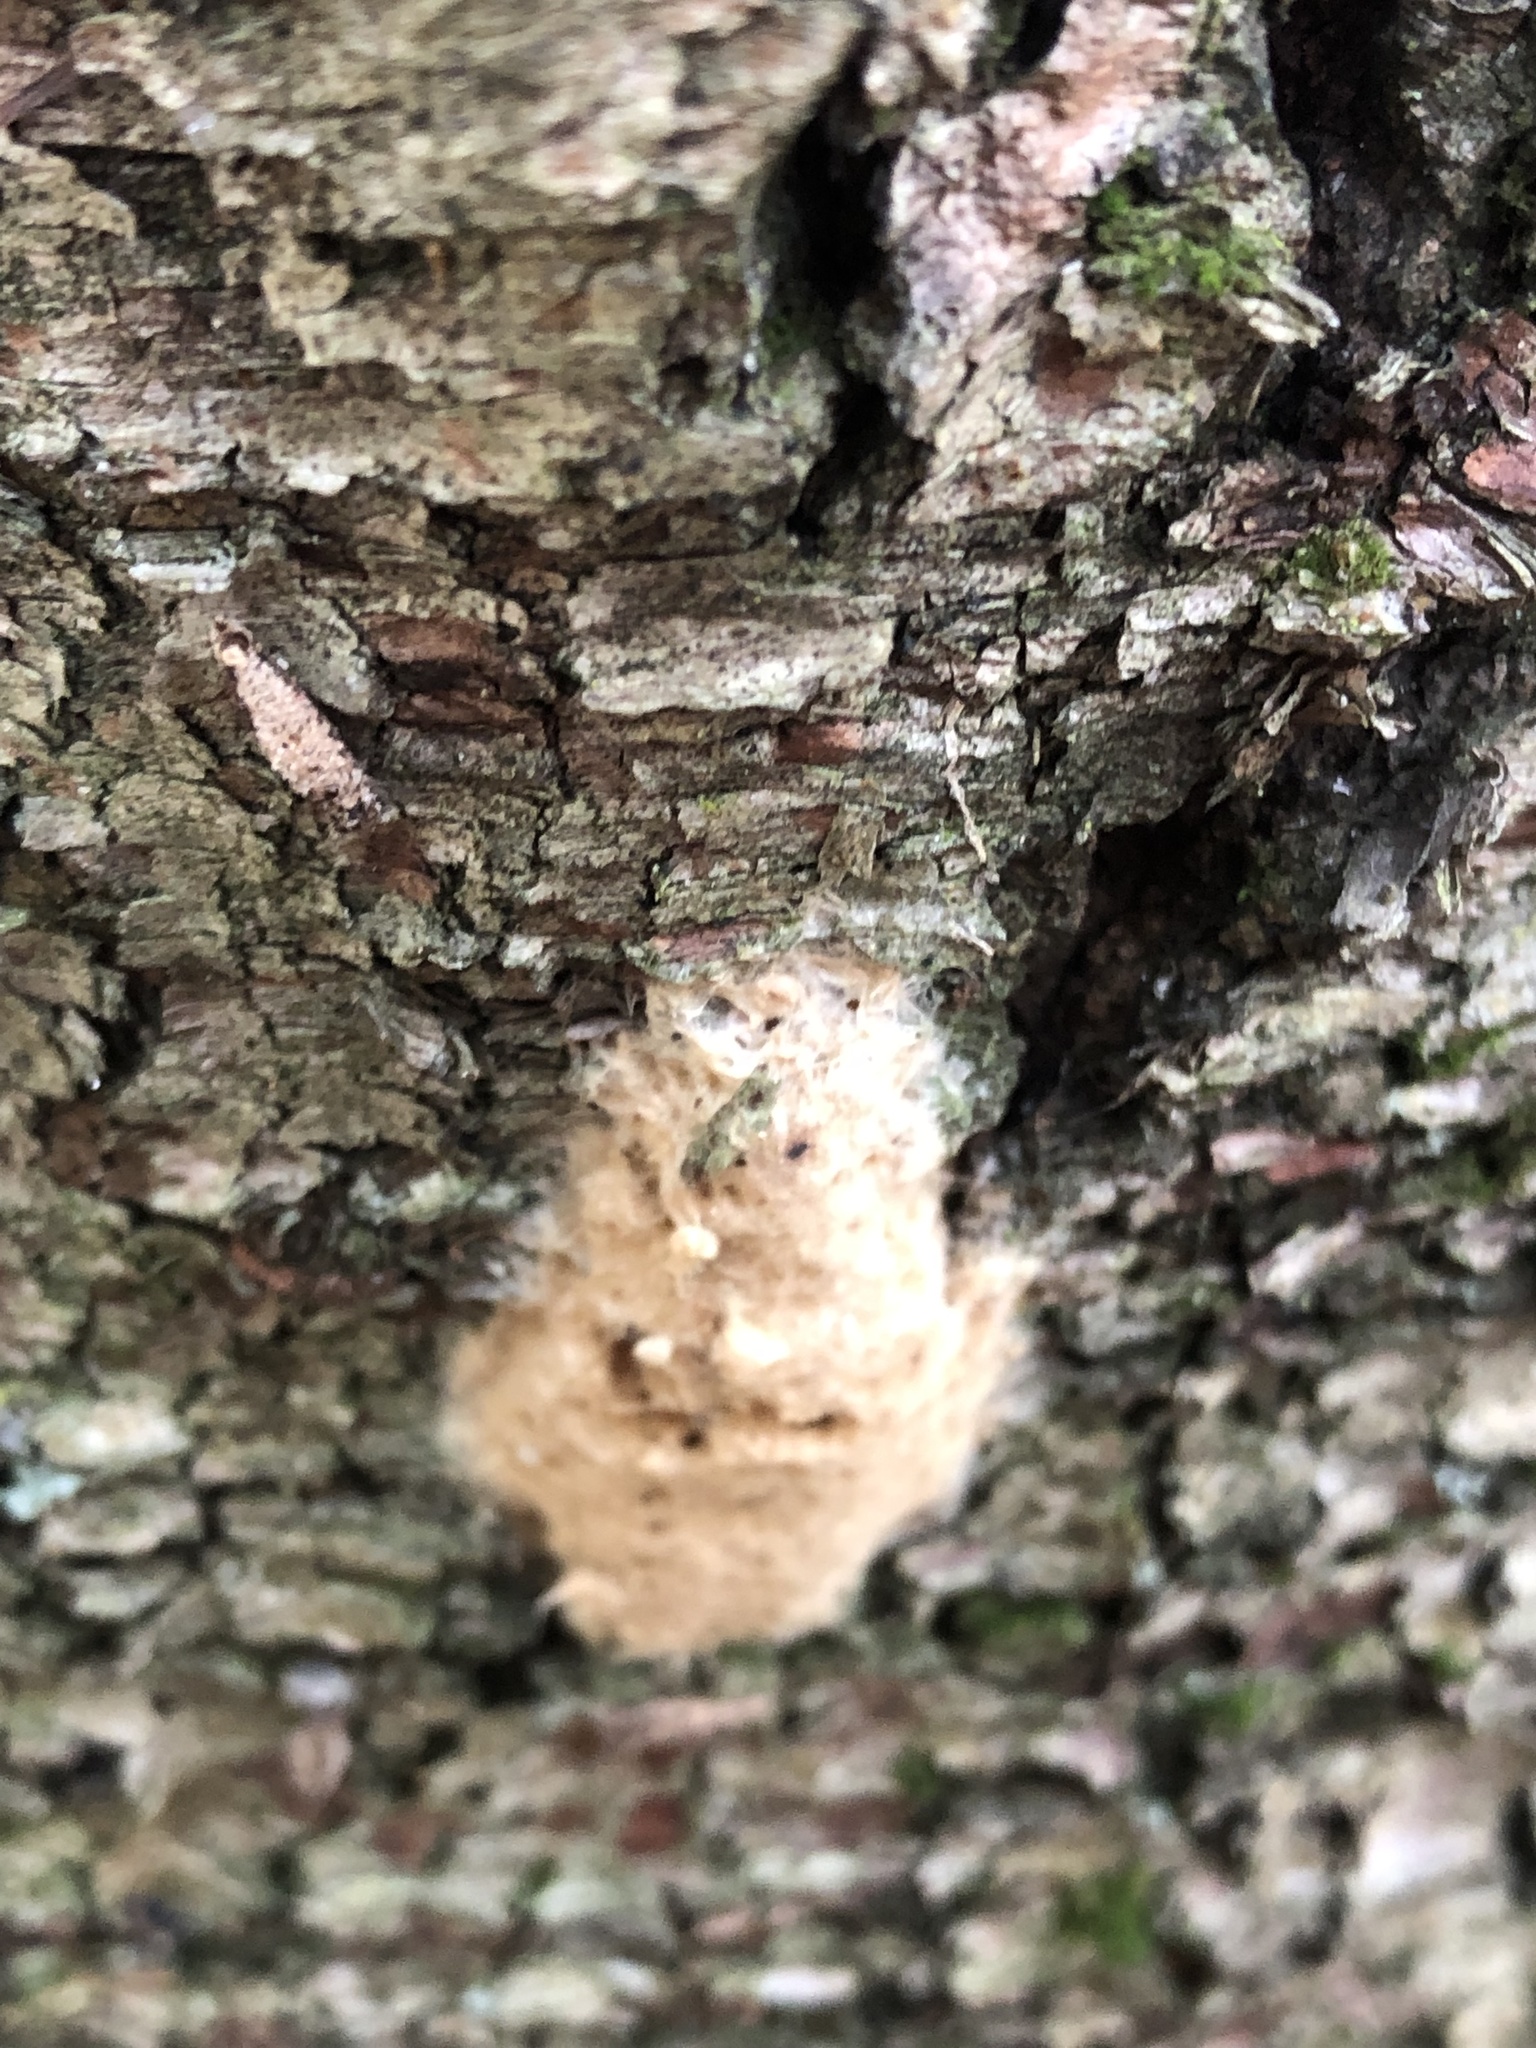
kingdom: Animalia
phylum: Arthropoda
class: Insecta
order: Lepidoptera
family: Erebidae
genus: Lymantria
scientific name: Lymantria dispar
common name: Gypsy moth
